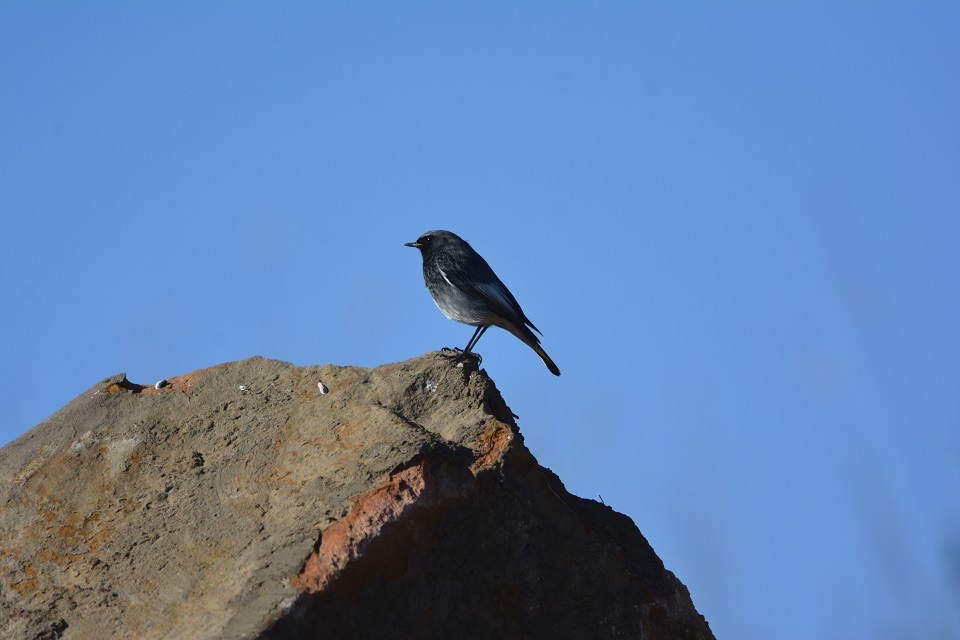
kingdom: Animalia
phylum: Chordata
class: Aves
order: Passeriformes
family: Muscicapidae
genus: Phoenicurus
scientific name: Phoenicurus ochruros
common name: Black redstart
